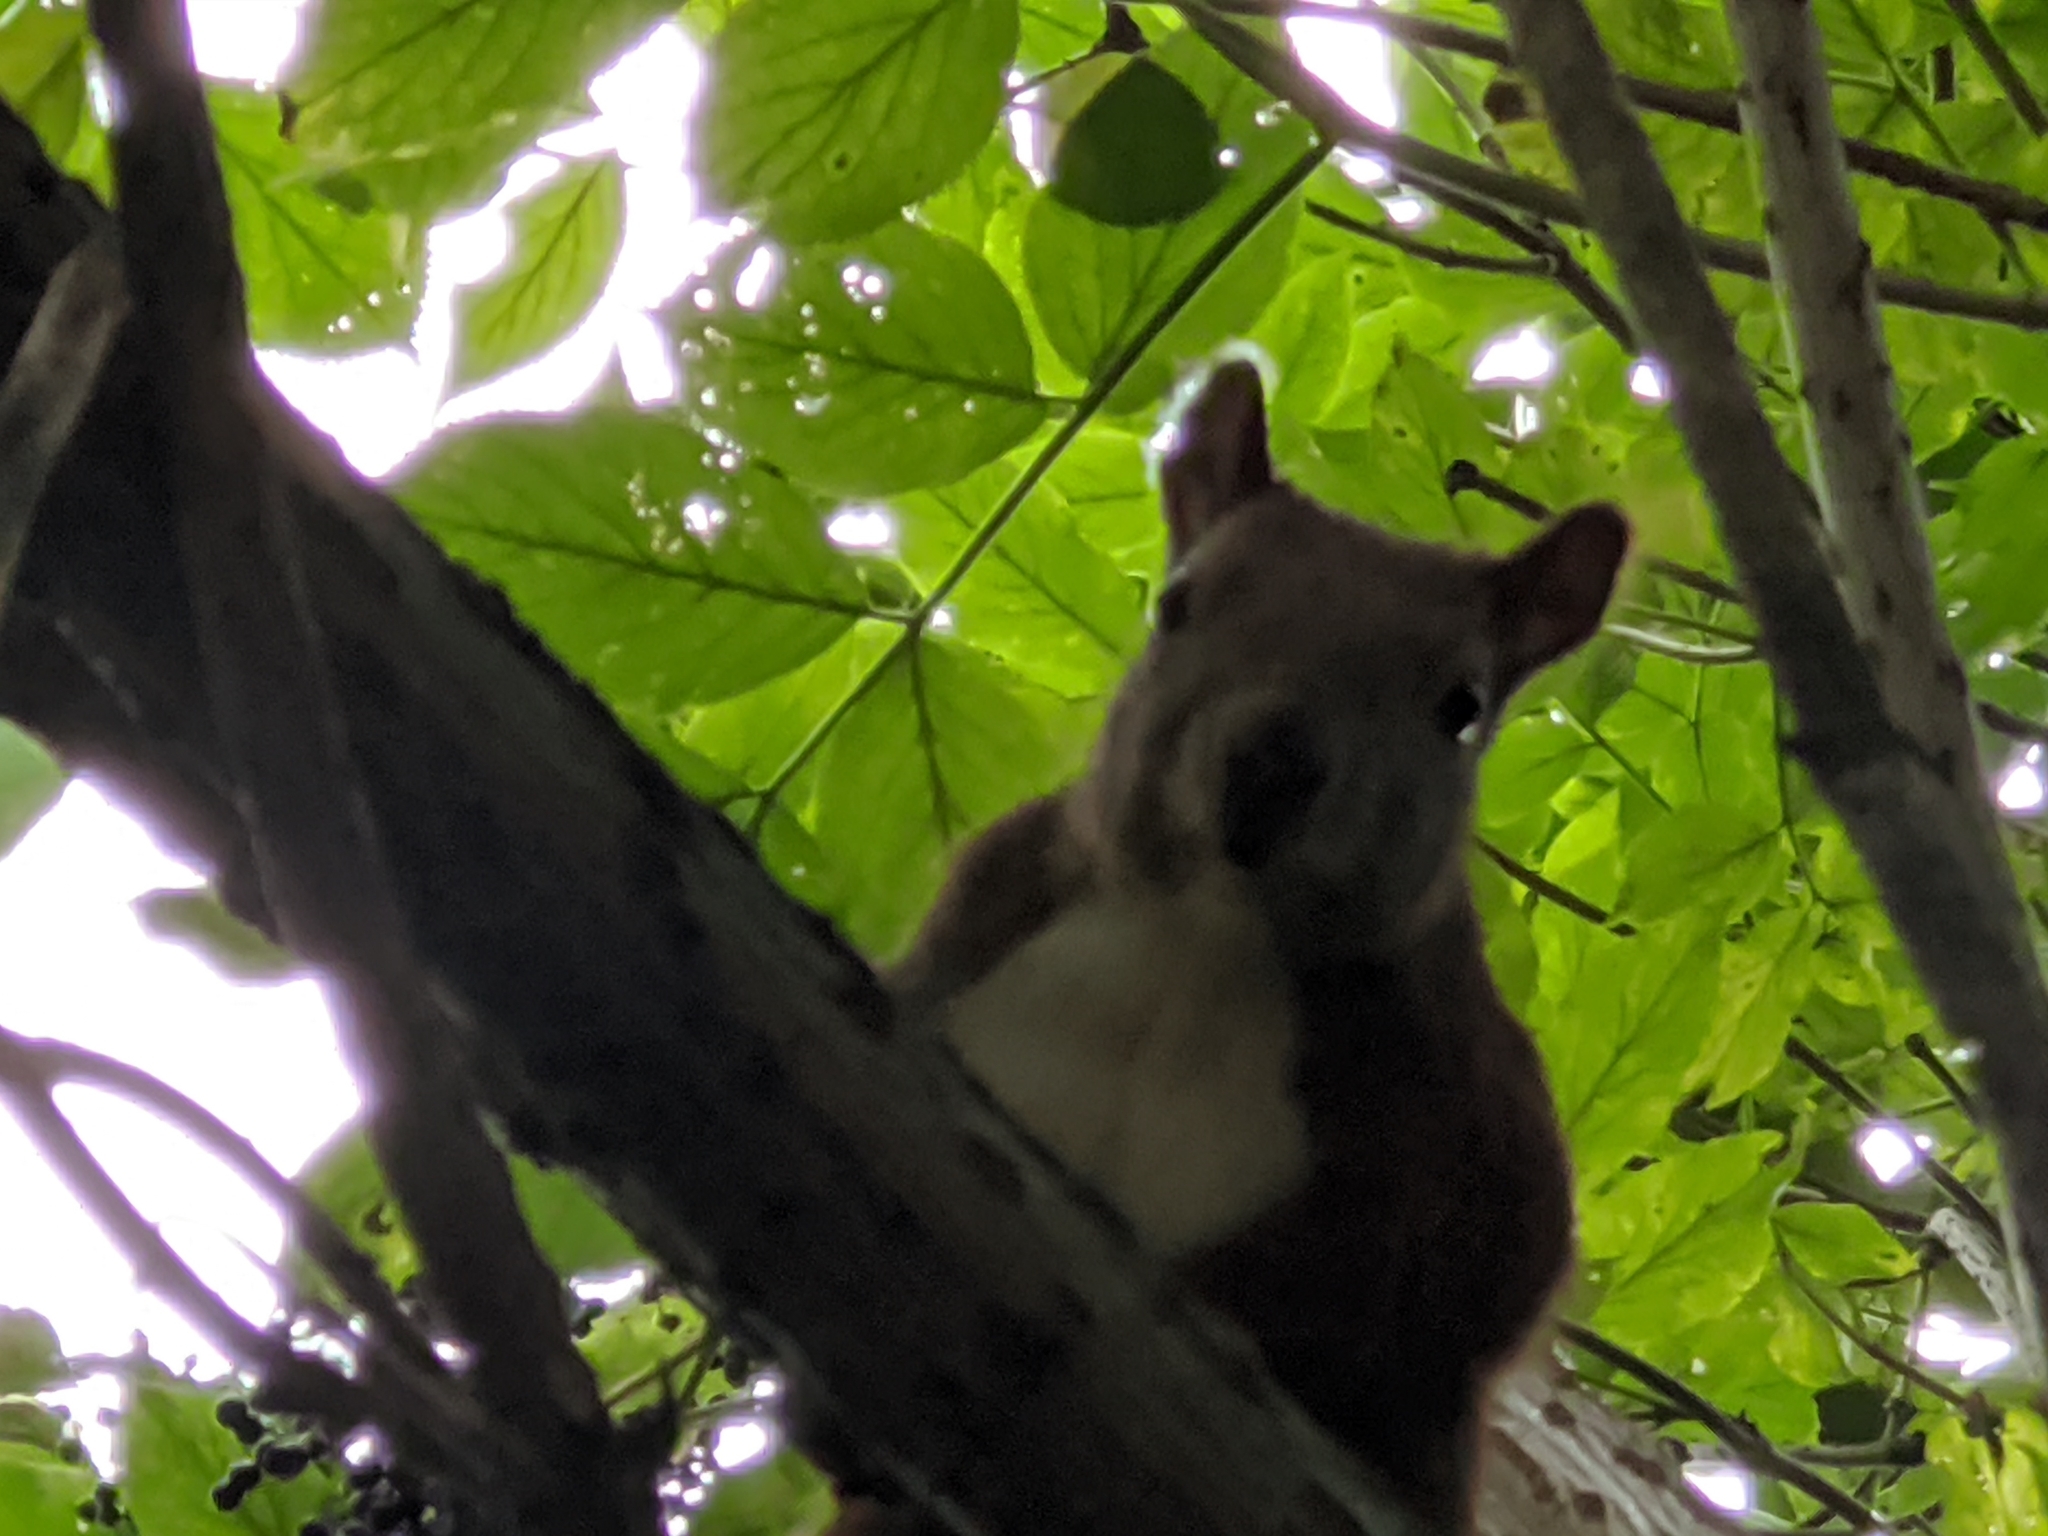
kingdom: Animalia
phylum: Chordata
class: Mammalia
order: Rodentia
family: Sciuridae
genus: Sciurus
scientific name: Sciurus vulgaris
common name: Eurasian red squirrel
